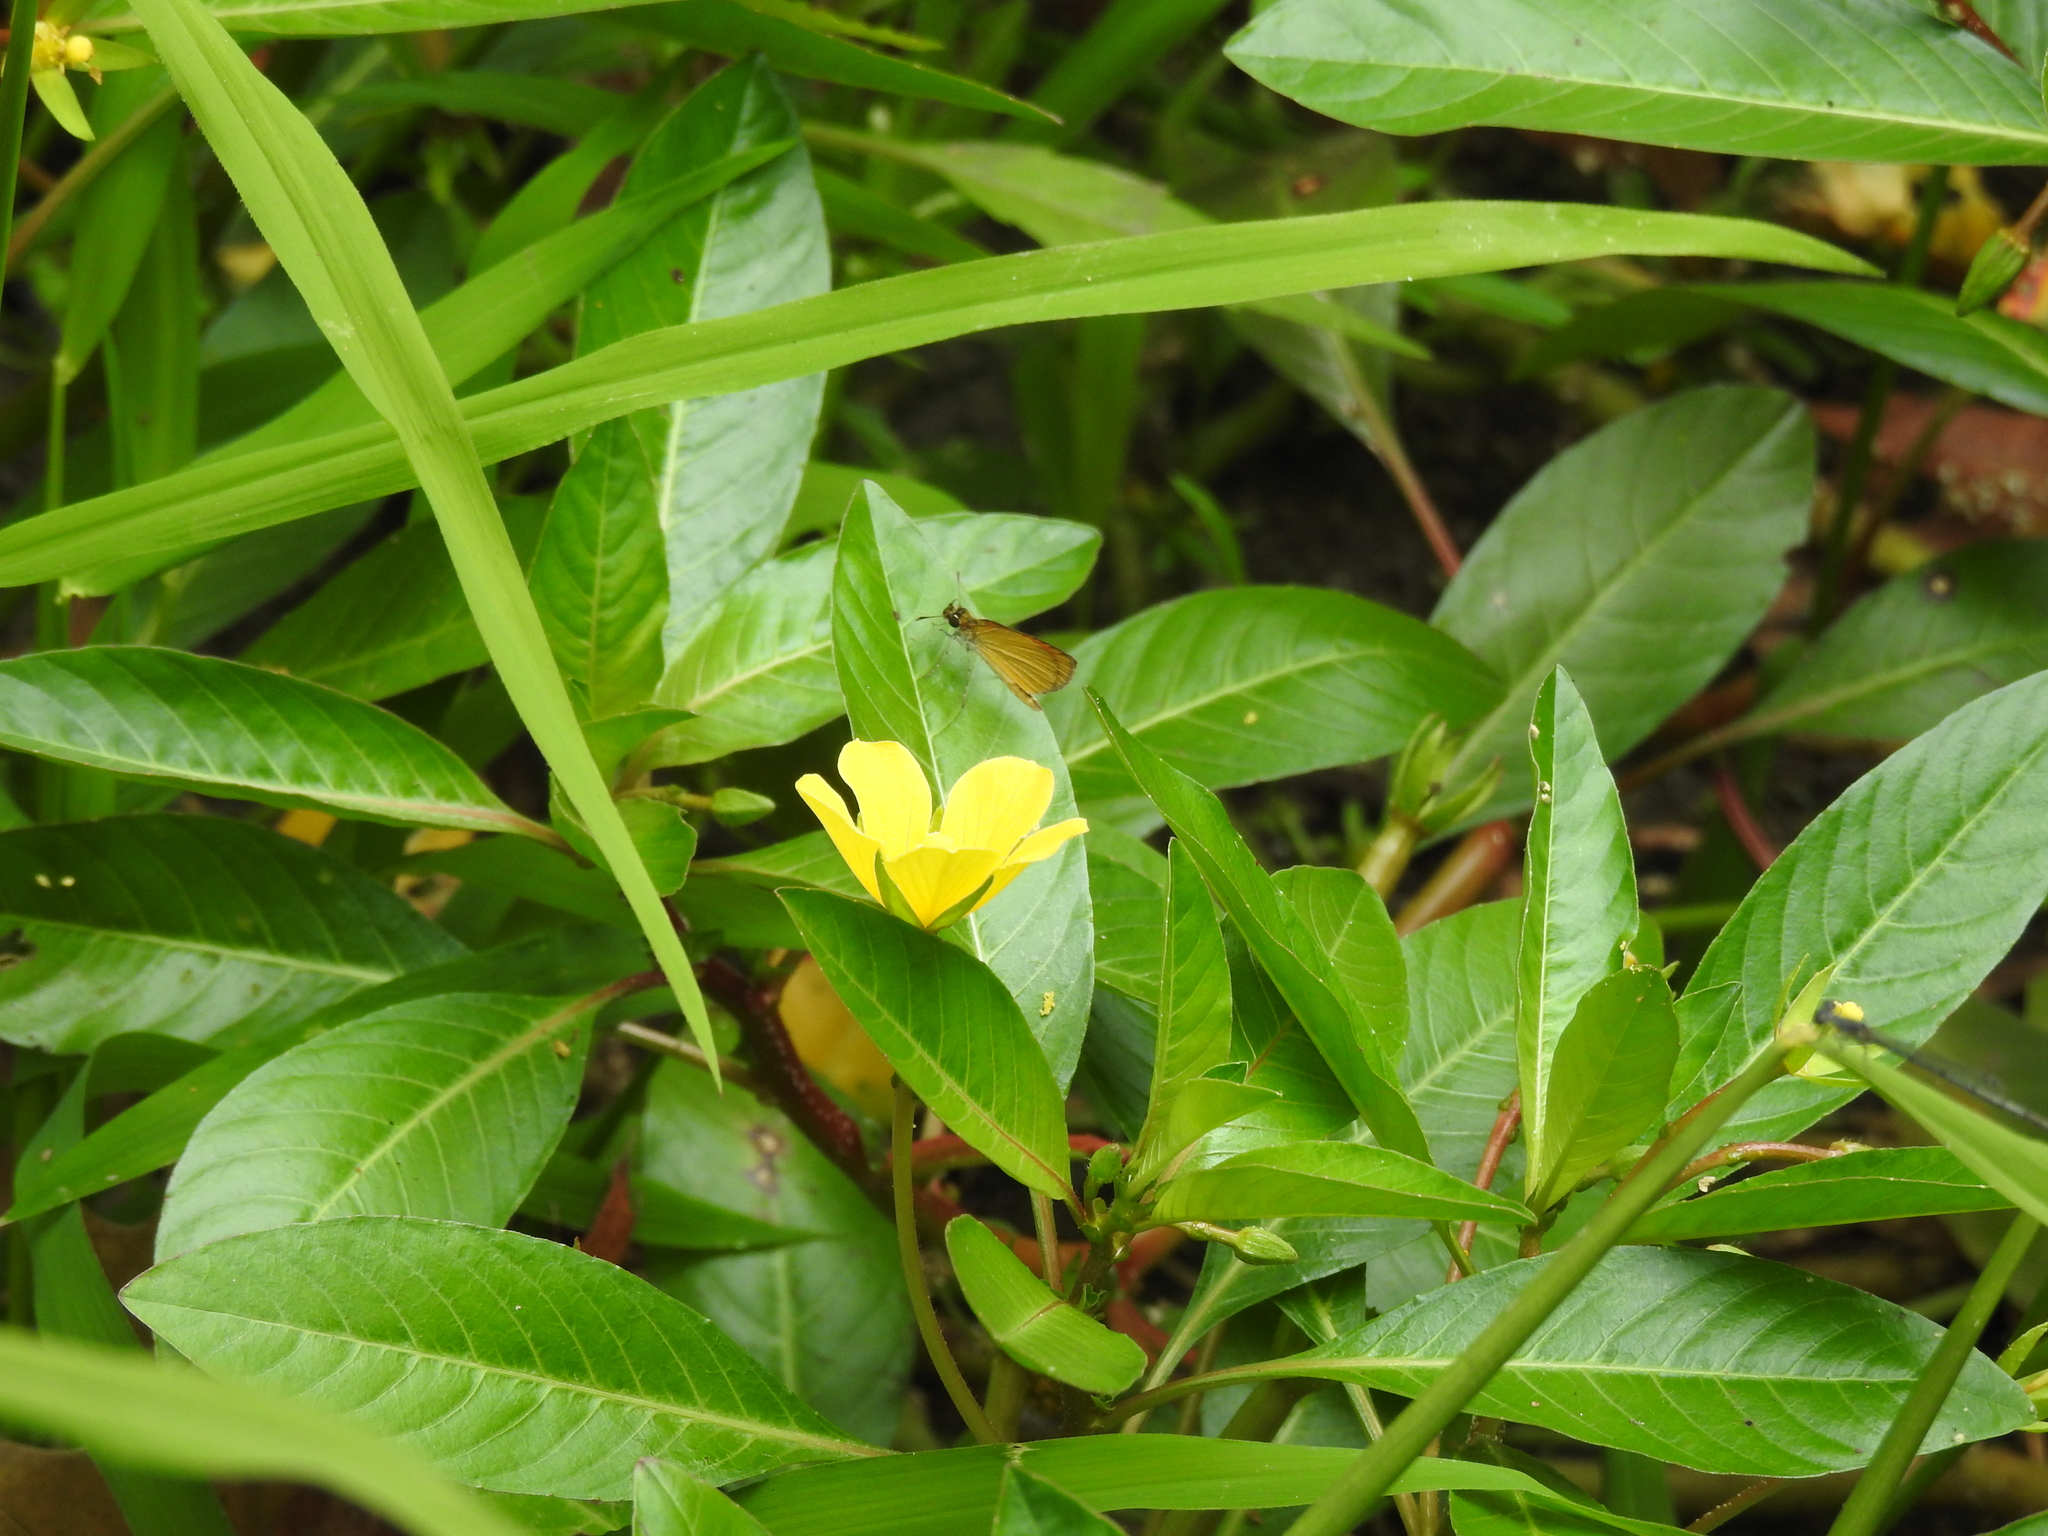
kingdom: Animalia
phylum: Arthropoda
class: Insecta
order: Lepidoptera
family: Hesperiidae
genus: Ancyloxypha
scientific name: Ancyloxypha numitor
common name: Least skipper
